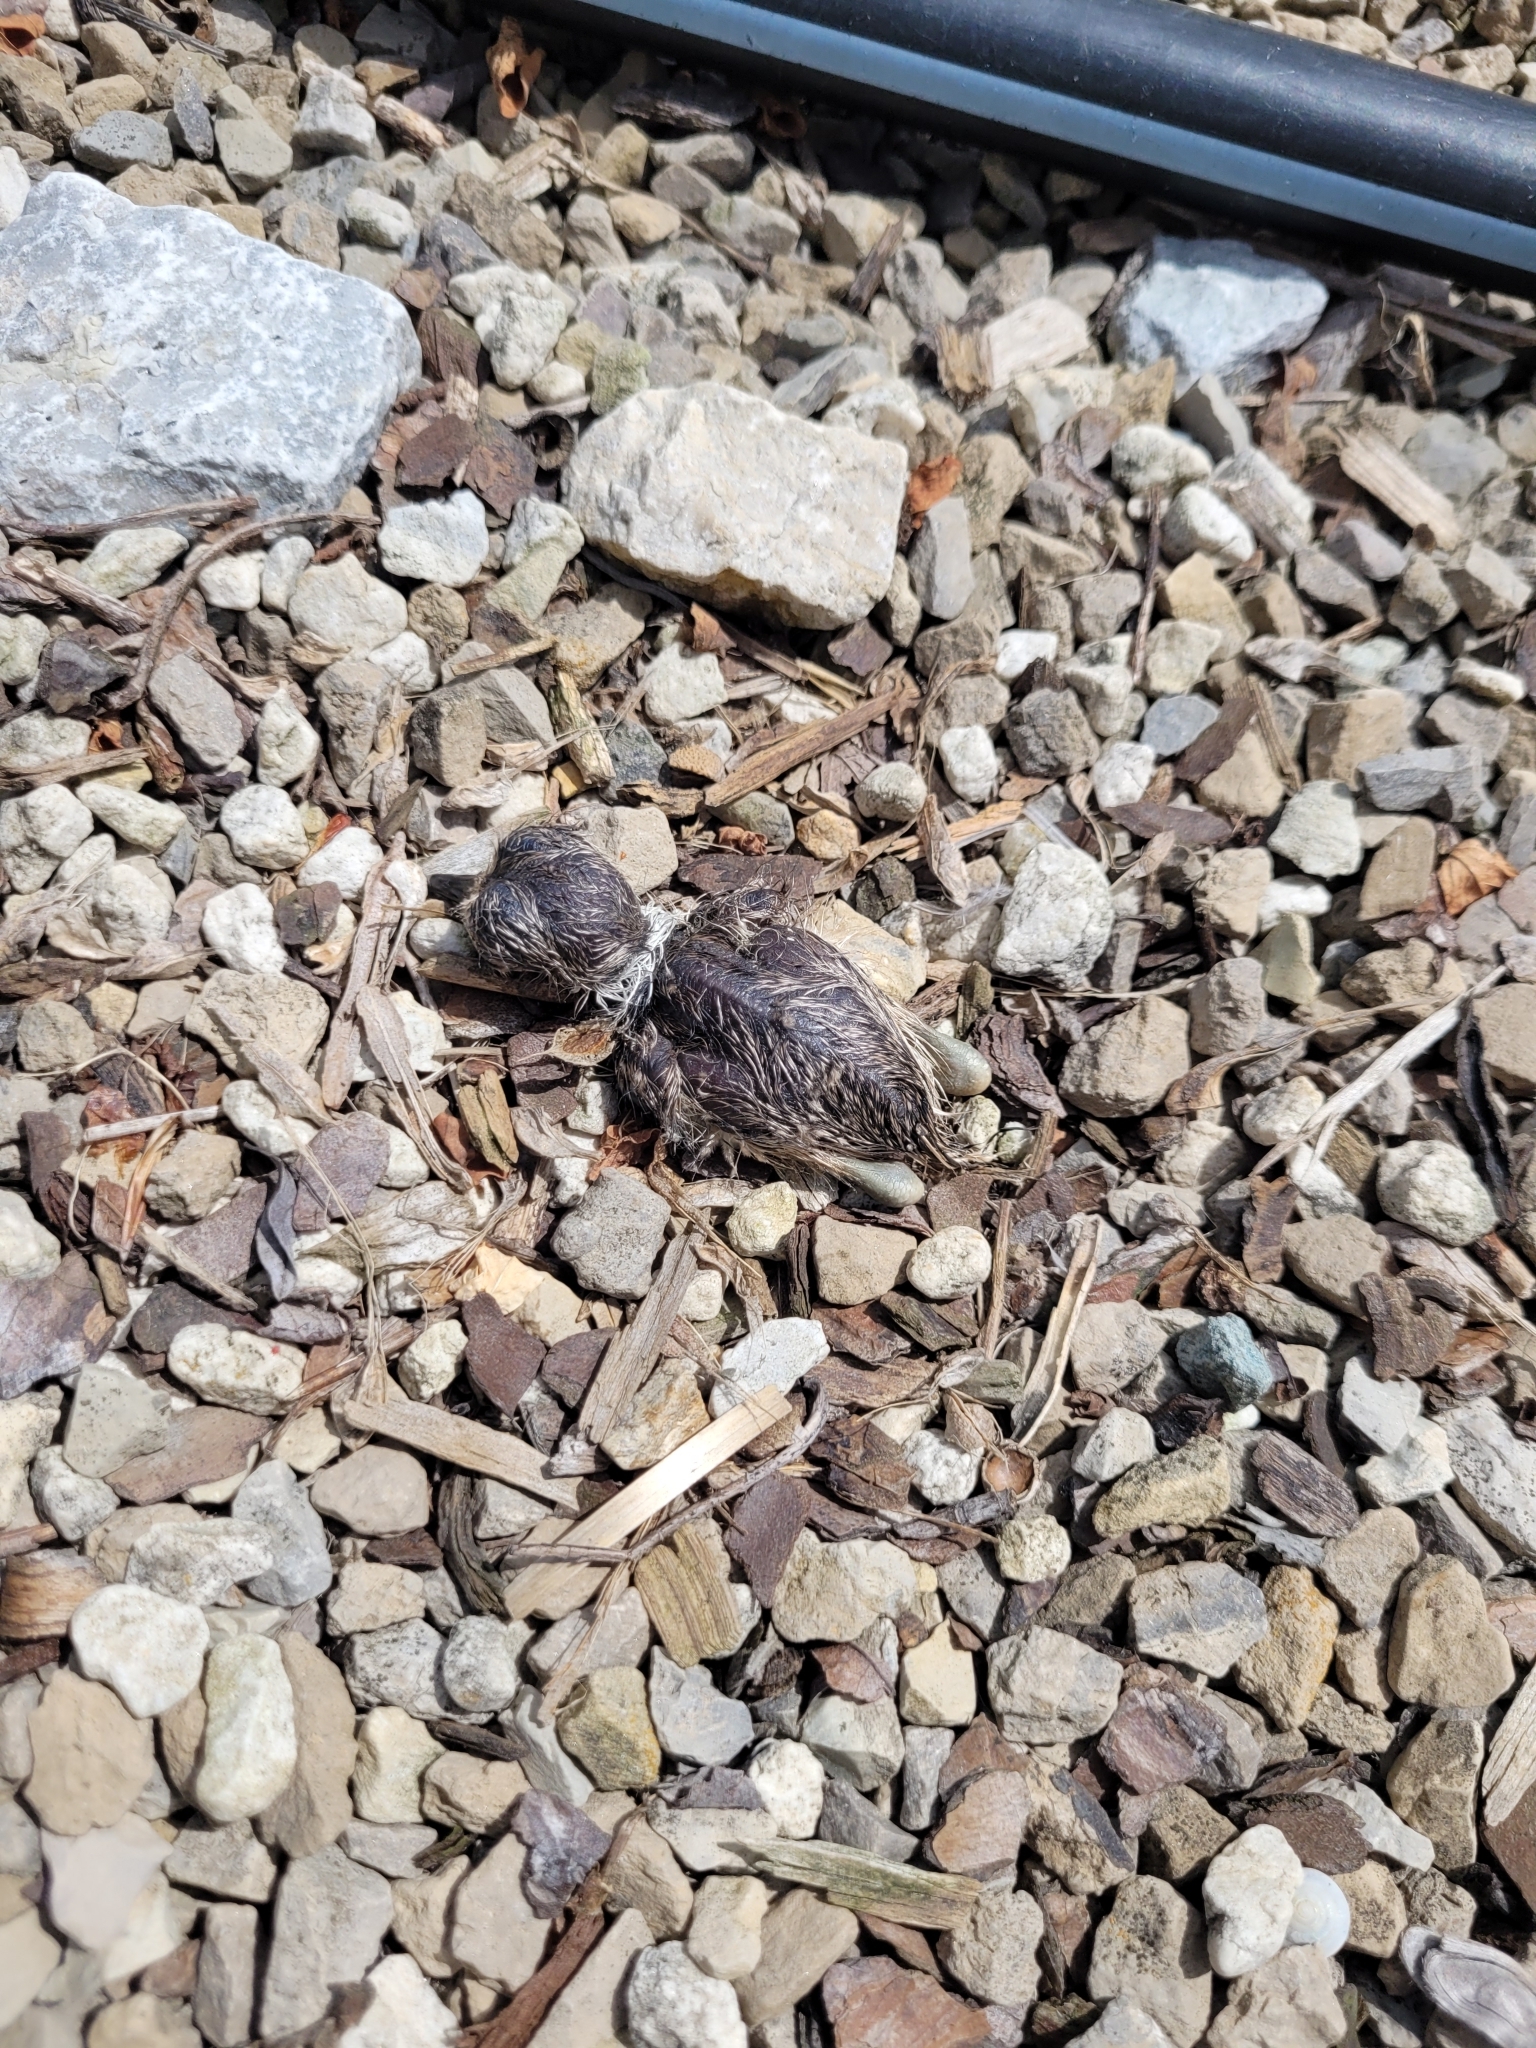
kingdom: Animalia
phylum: Chordata
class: Aves
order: Charadriiformes
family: Charadriidae
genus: Charadrius
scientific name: Charadrius vociferus
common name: Killdeer
